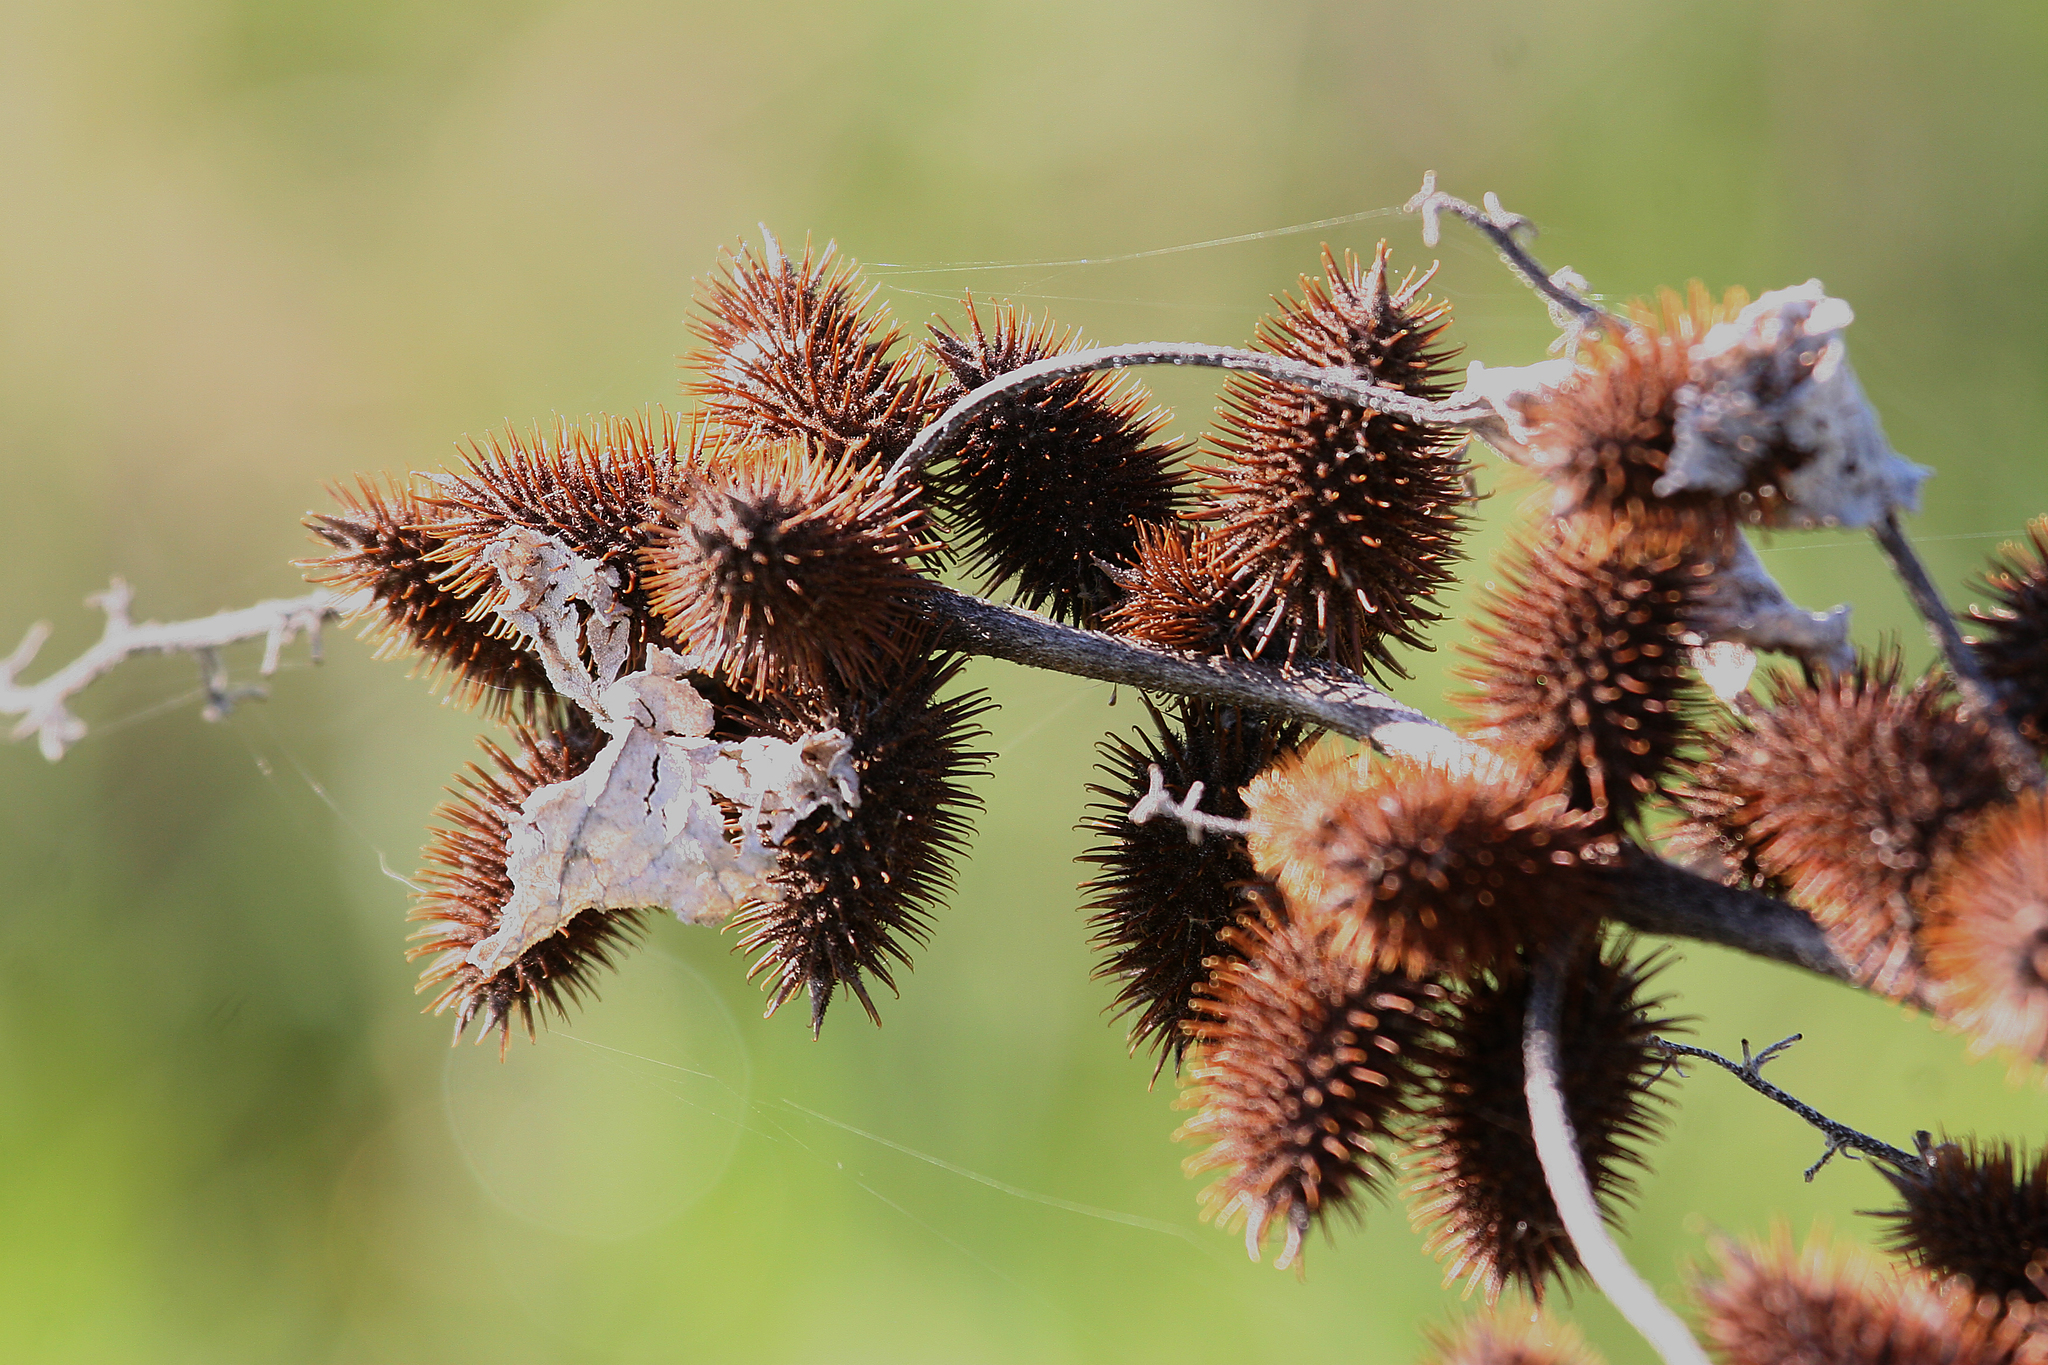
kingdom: Plantae
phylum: Tracheophyta
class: Magnoliopsida
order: Asterales
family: Asteraceae
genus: Xanthium
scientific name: Xanthium strumarium
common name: Rough cocklebur
